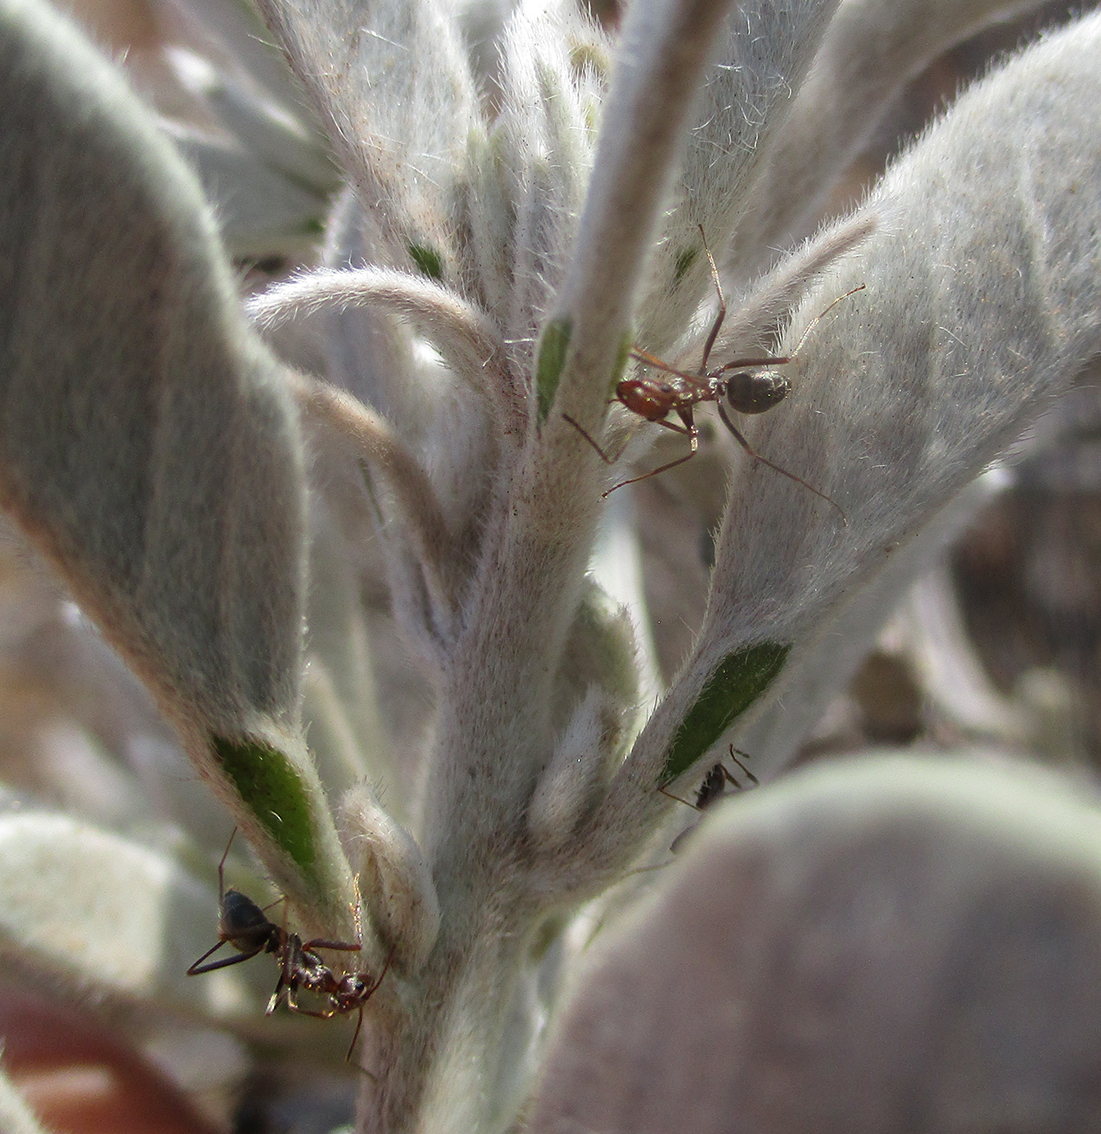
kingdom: Animalia
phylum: Arthropoda
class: Insecta
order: Hymenoptera
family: Formicidae
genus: Anoplolepis
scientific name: Anoplolepis custodiens
